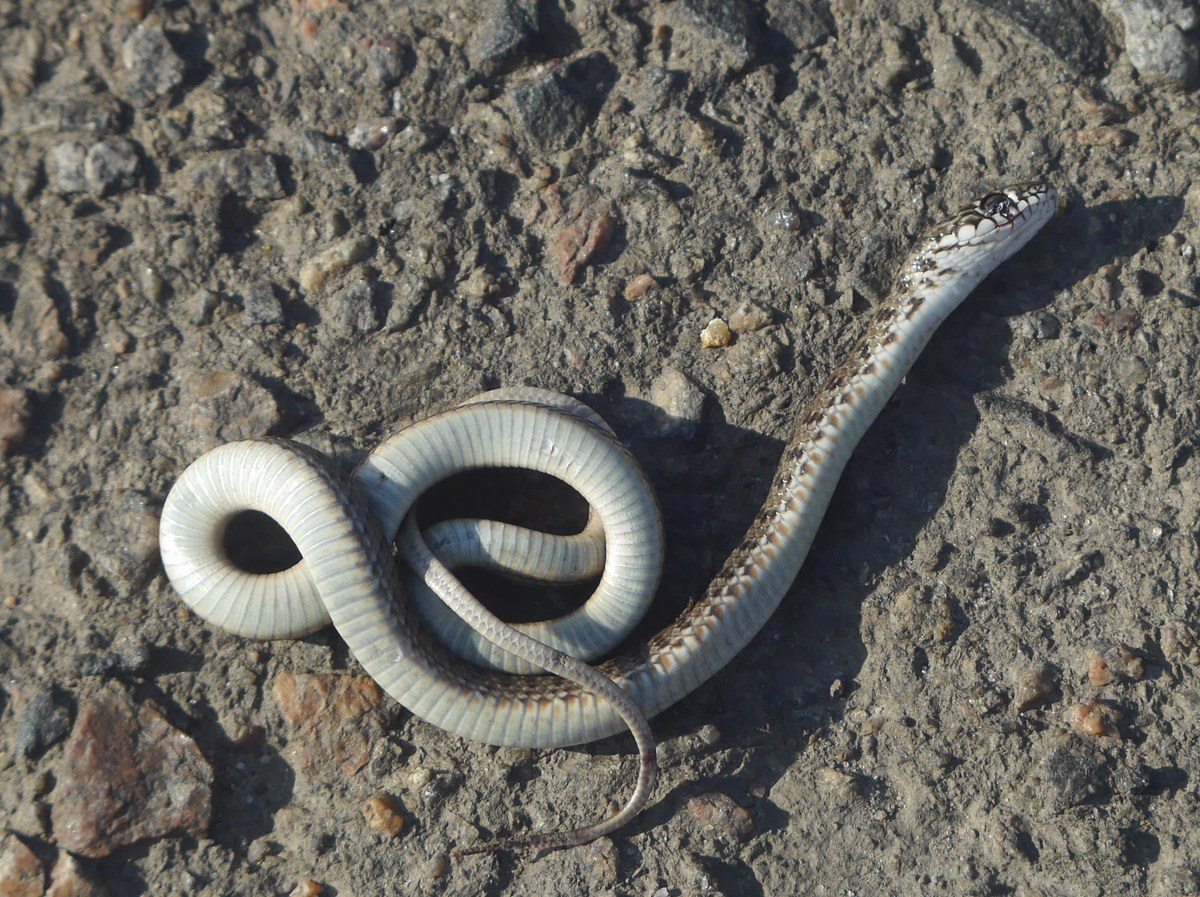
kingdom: Animalia
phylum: Chordata
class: Squamata
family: Colubridae
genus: Dolichophis
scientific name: Dolichophis caspius
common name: Large whip snake
